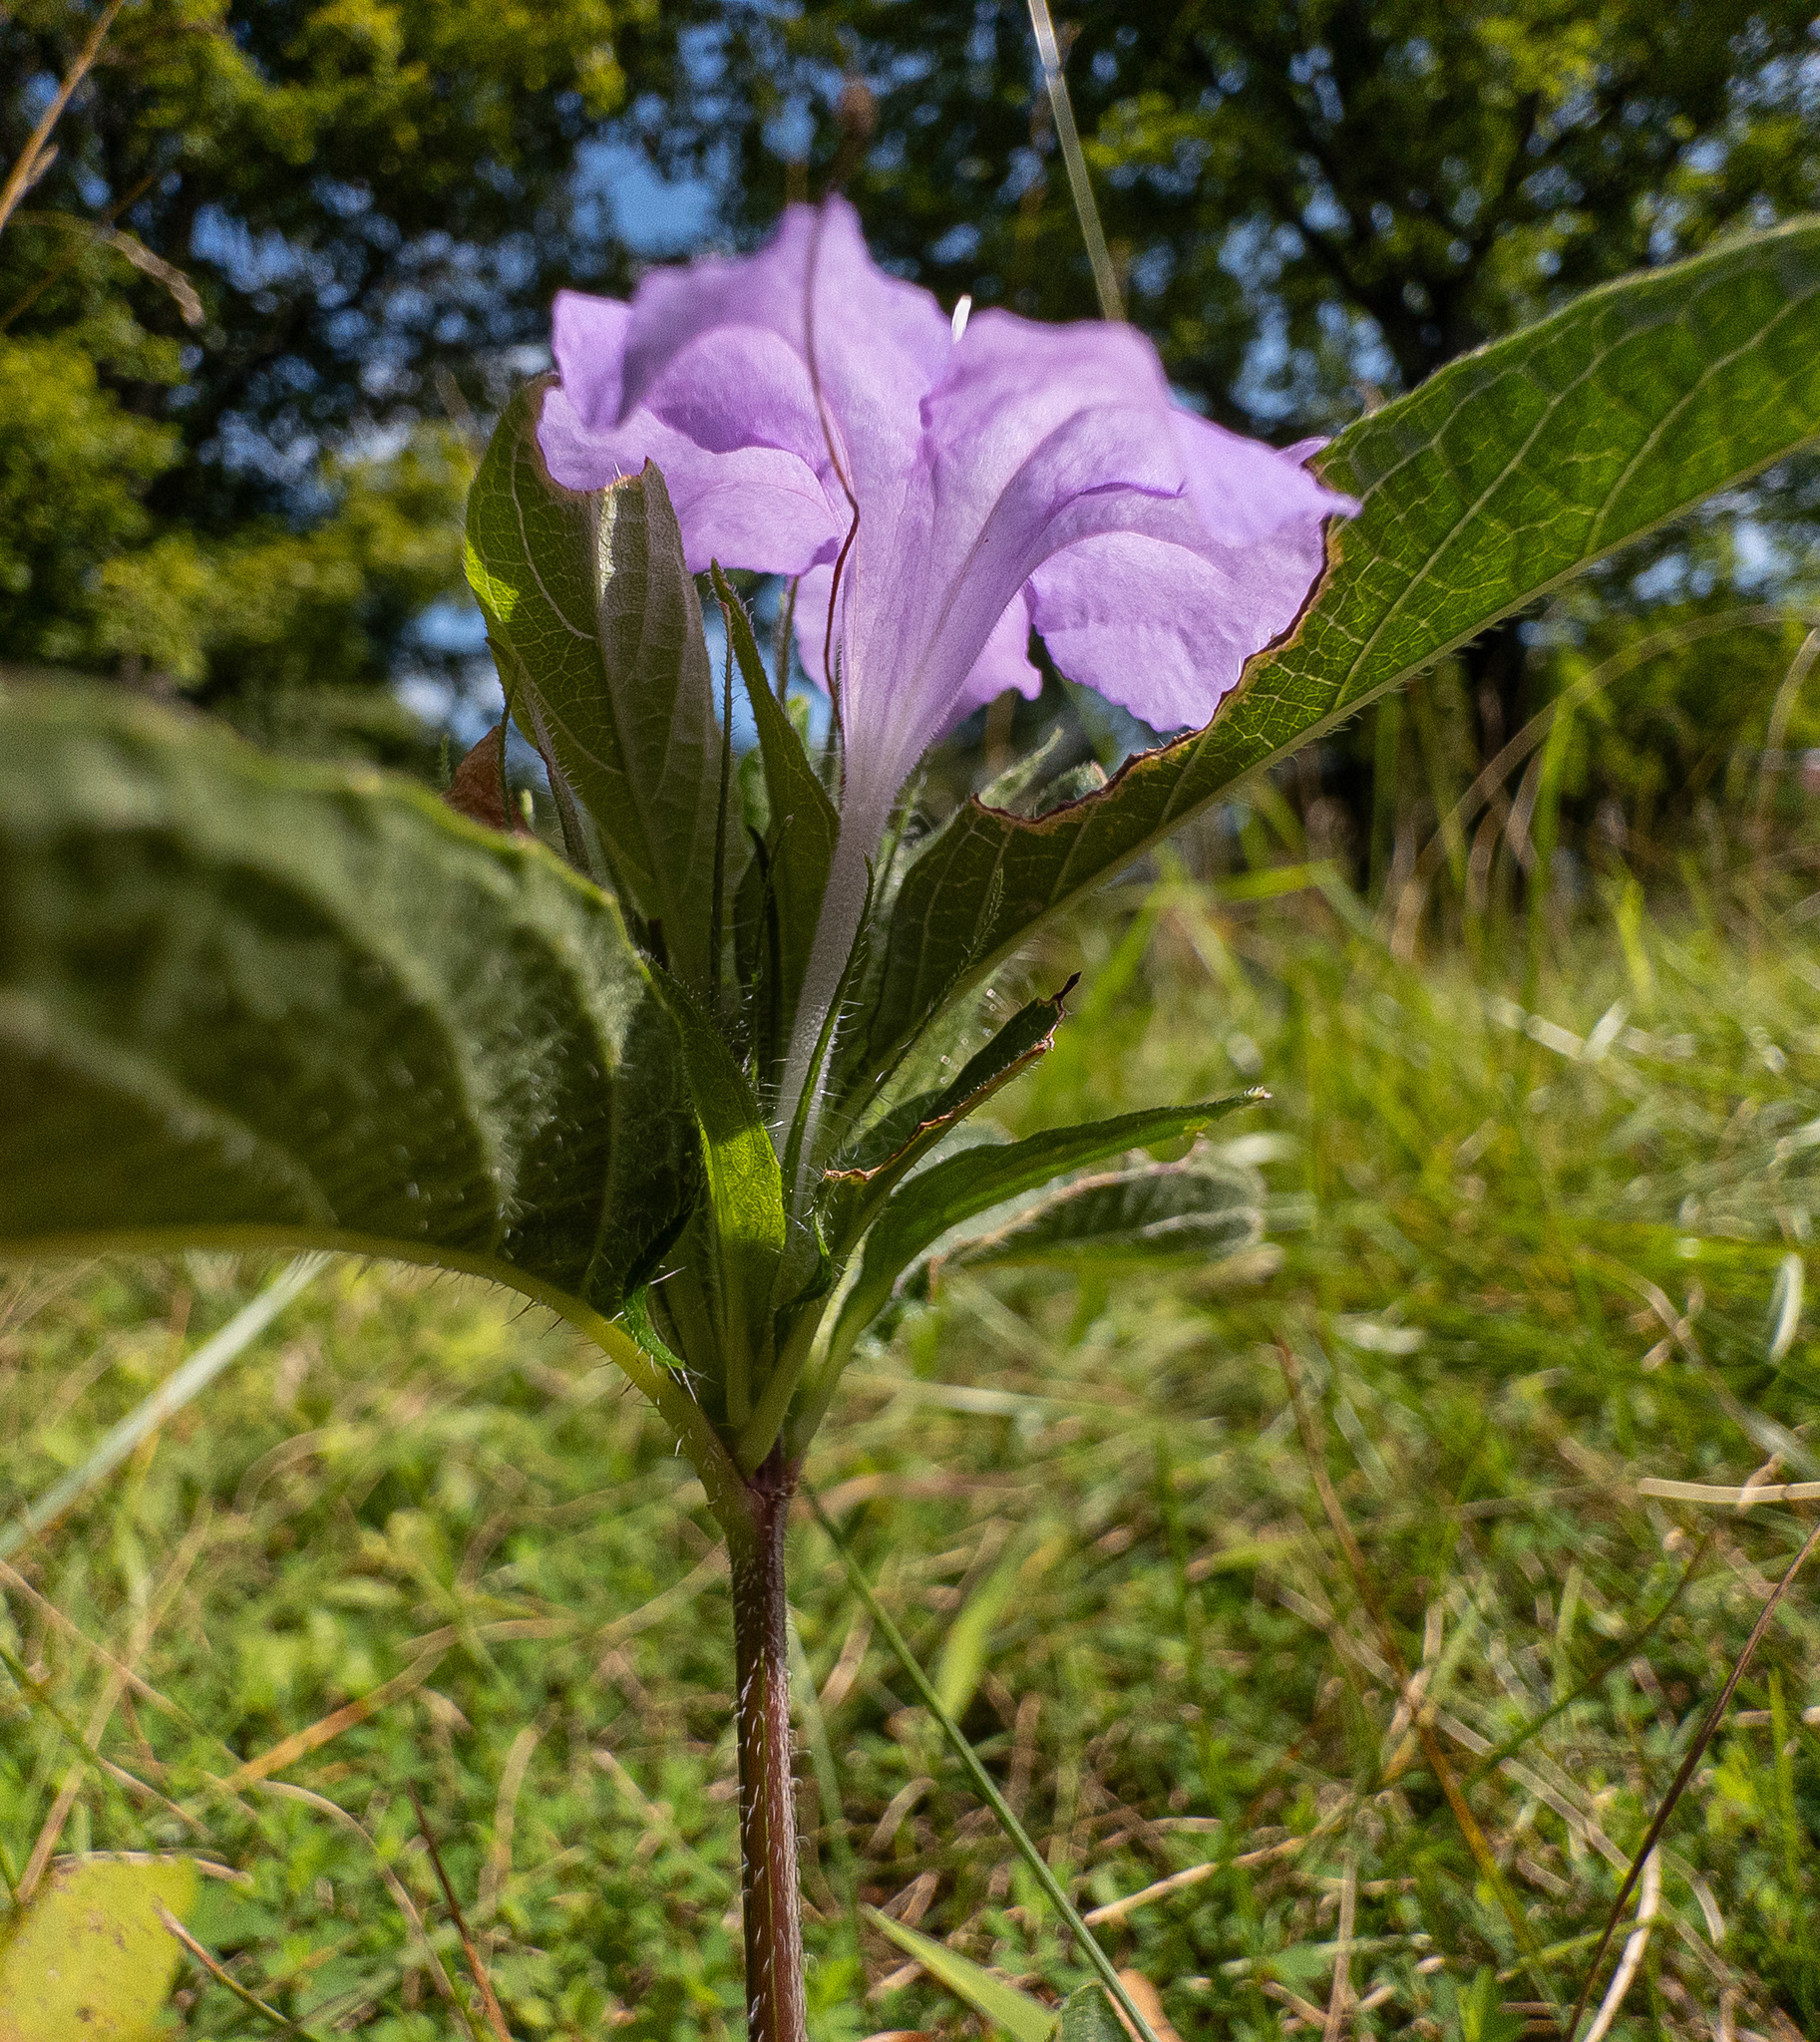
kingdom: Plantae
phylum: Tracheophyta
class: Magnoliopsida
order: Lamiales
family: Acanthaceae
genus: Ruellia
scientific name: Ruellia caroliniensis
